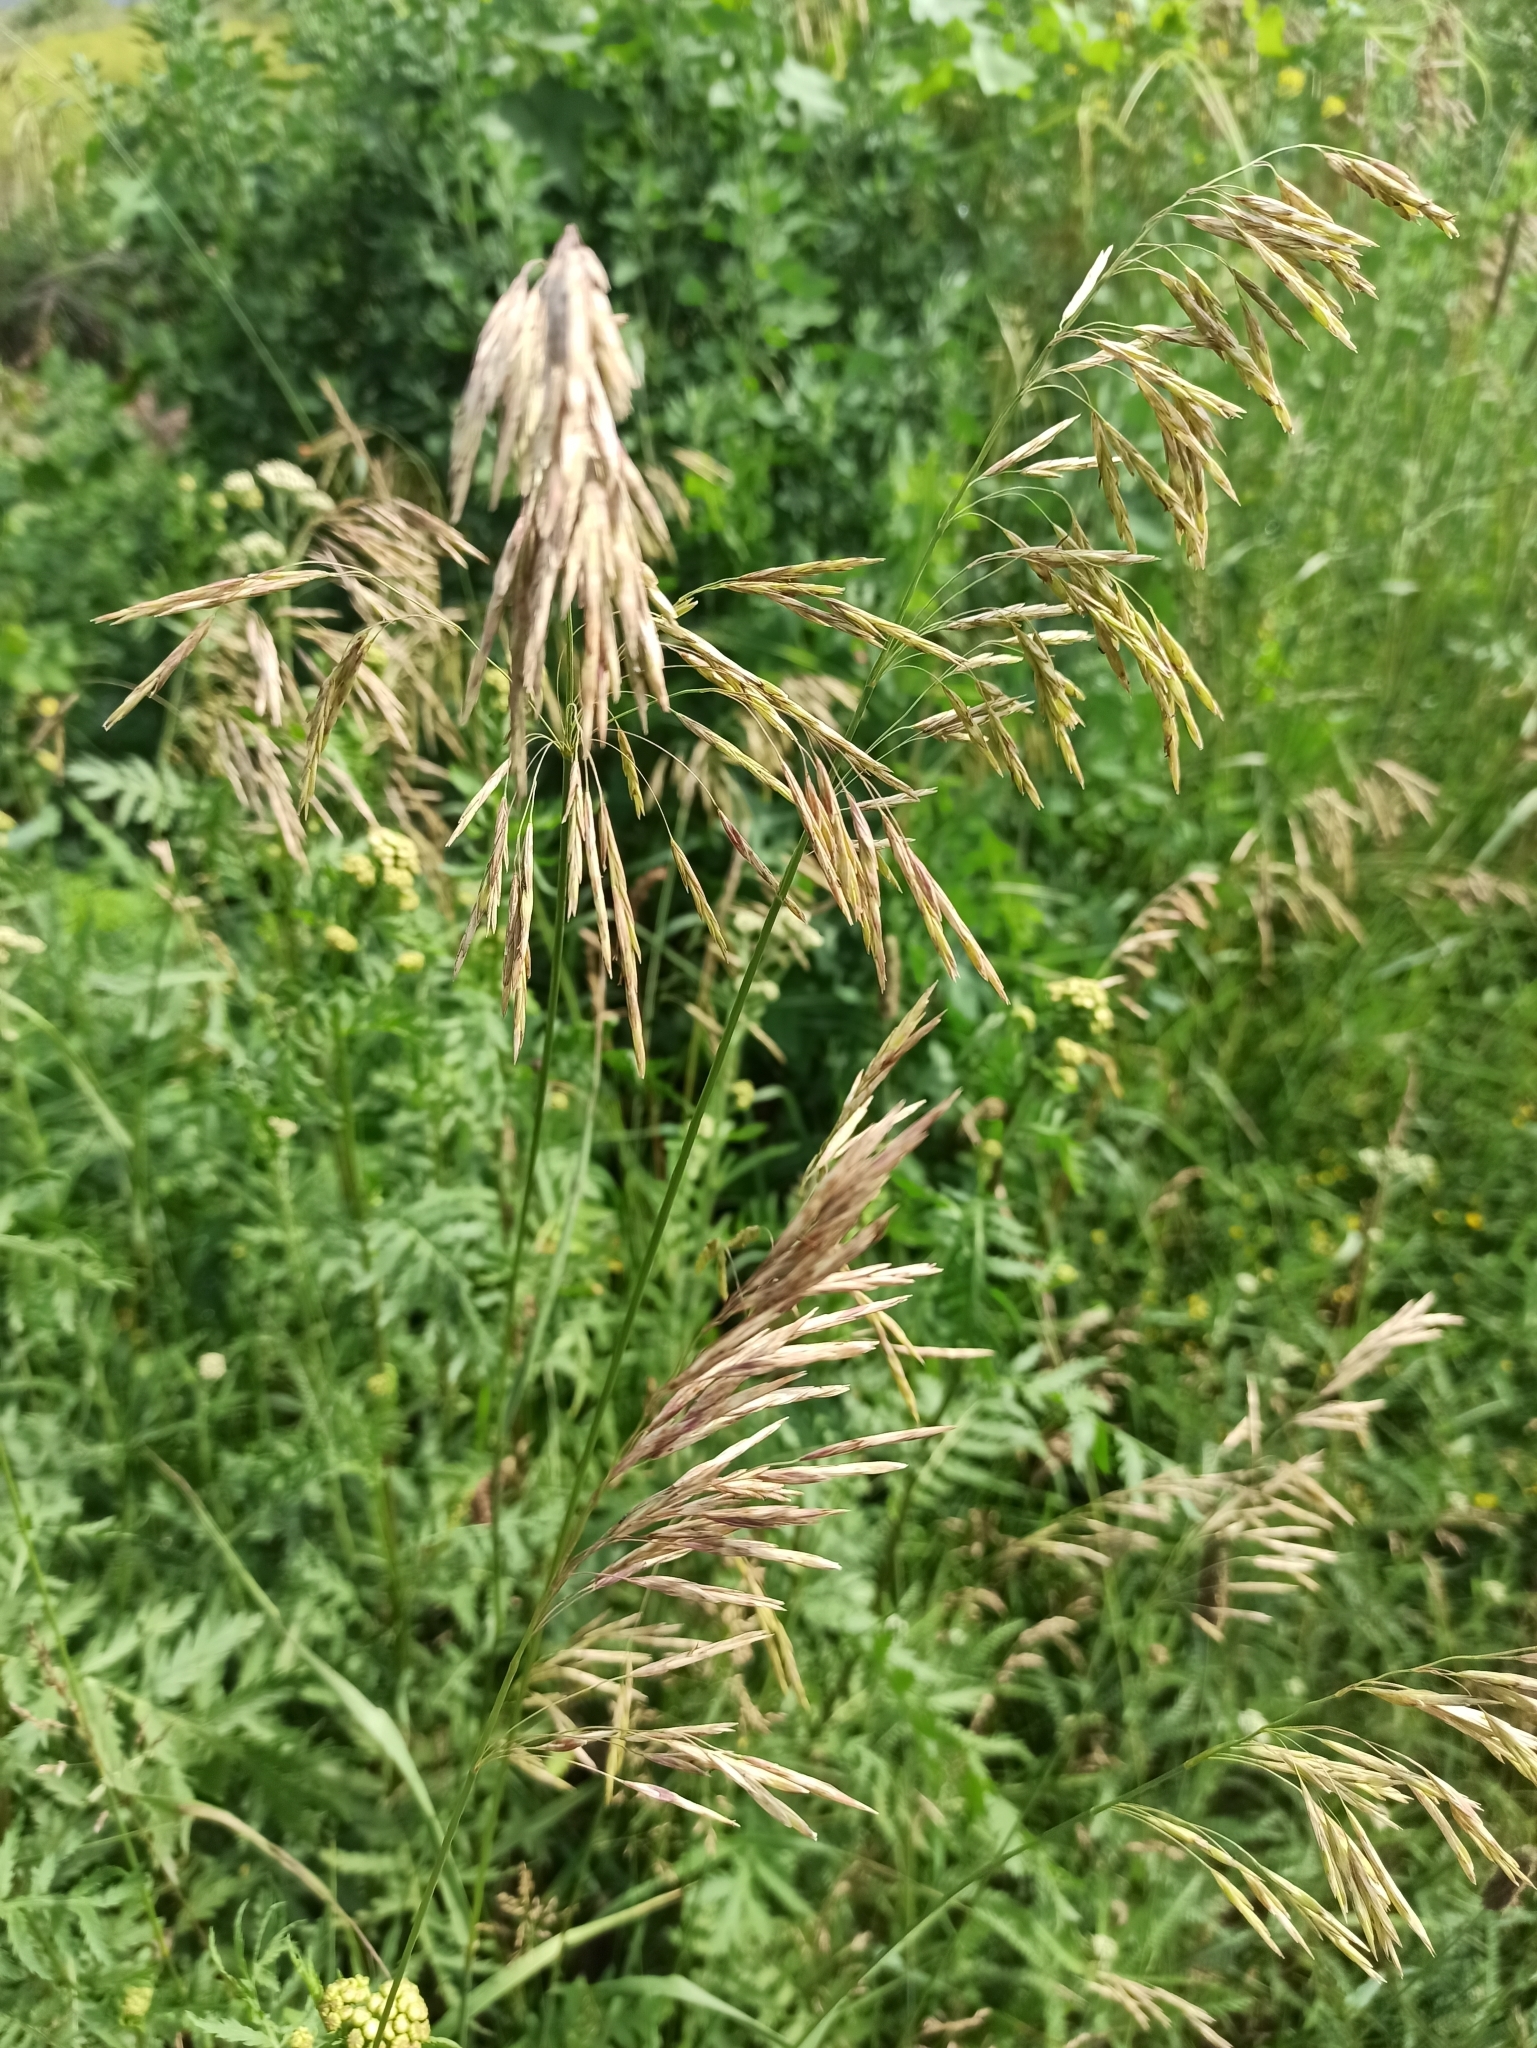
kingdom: Plantae
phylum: Tracheophyta
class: Liliopsida
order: Poales
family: Poaceae
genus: Bromus
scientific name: Bromus inermis
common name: Smooth brome
